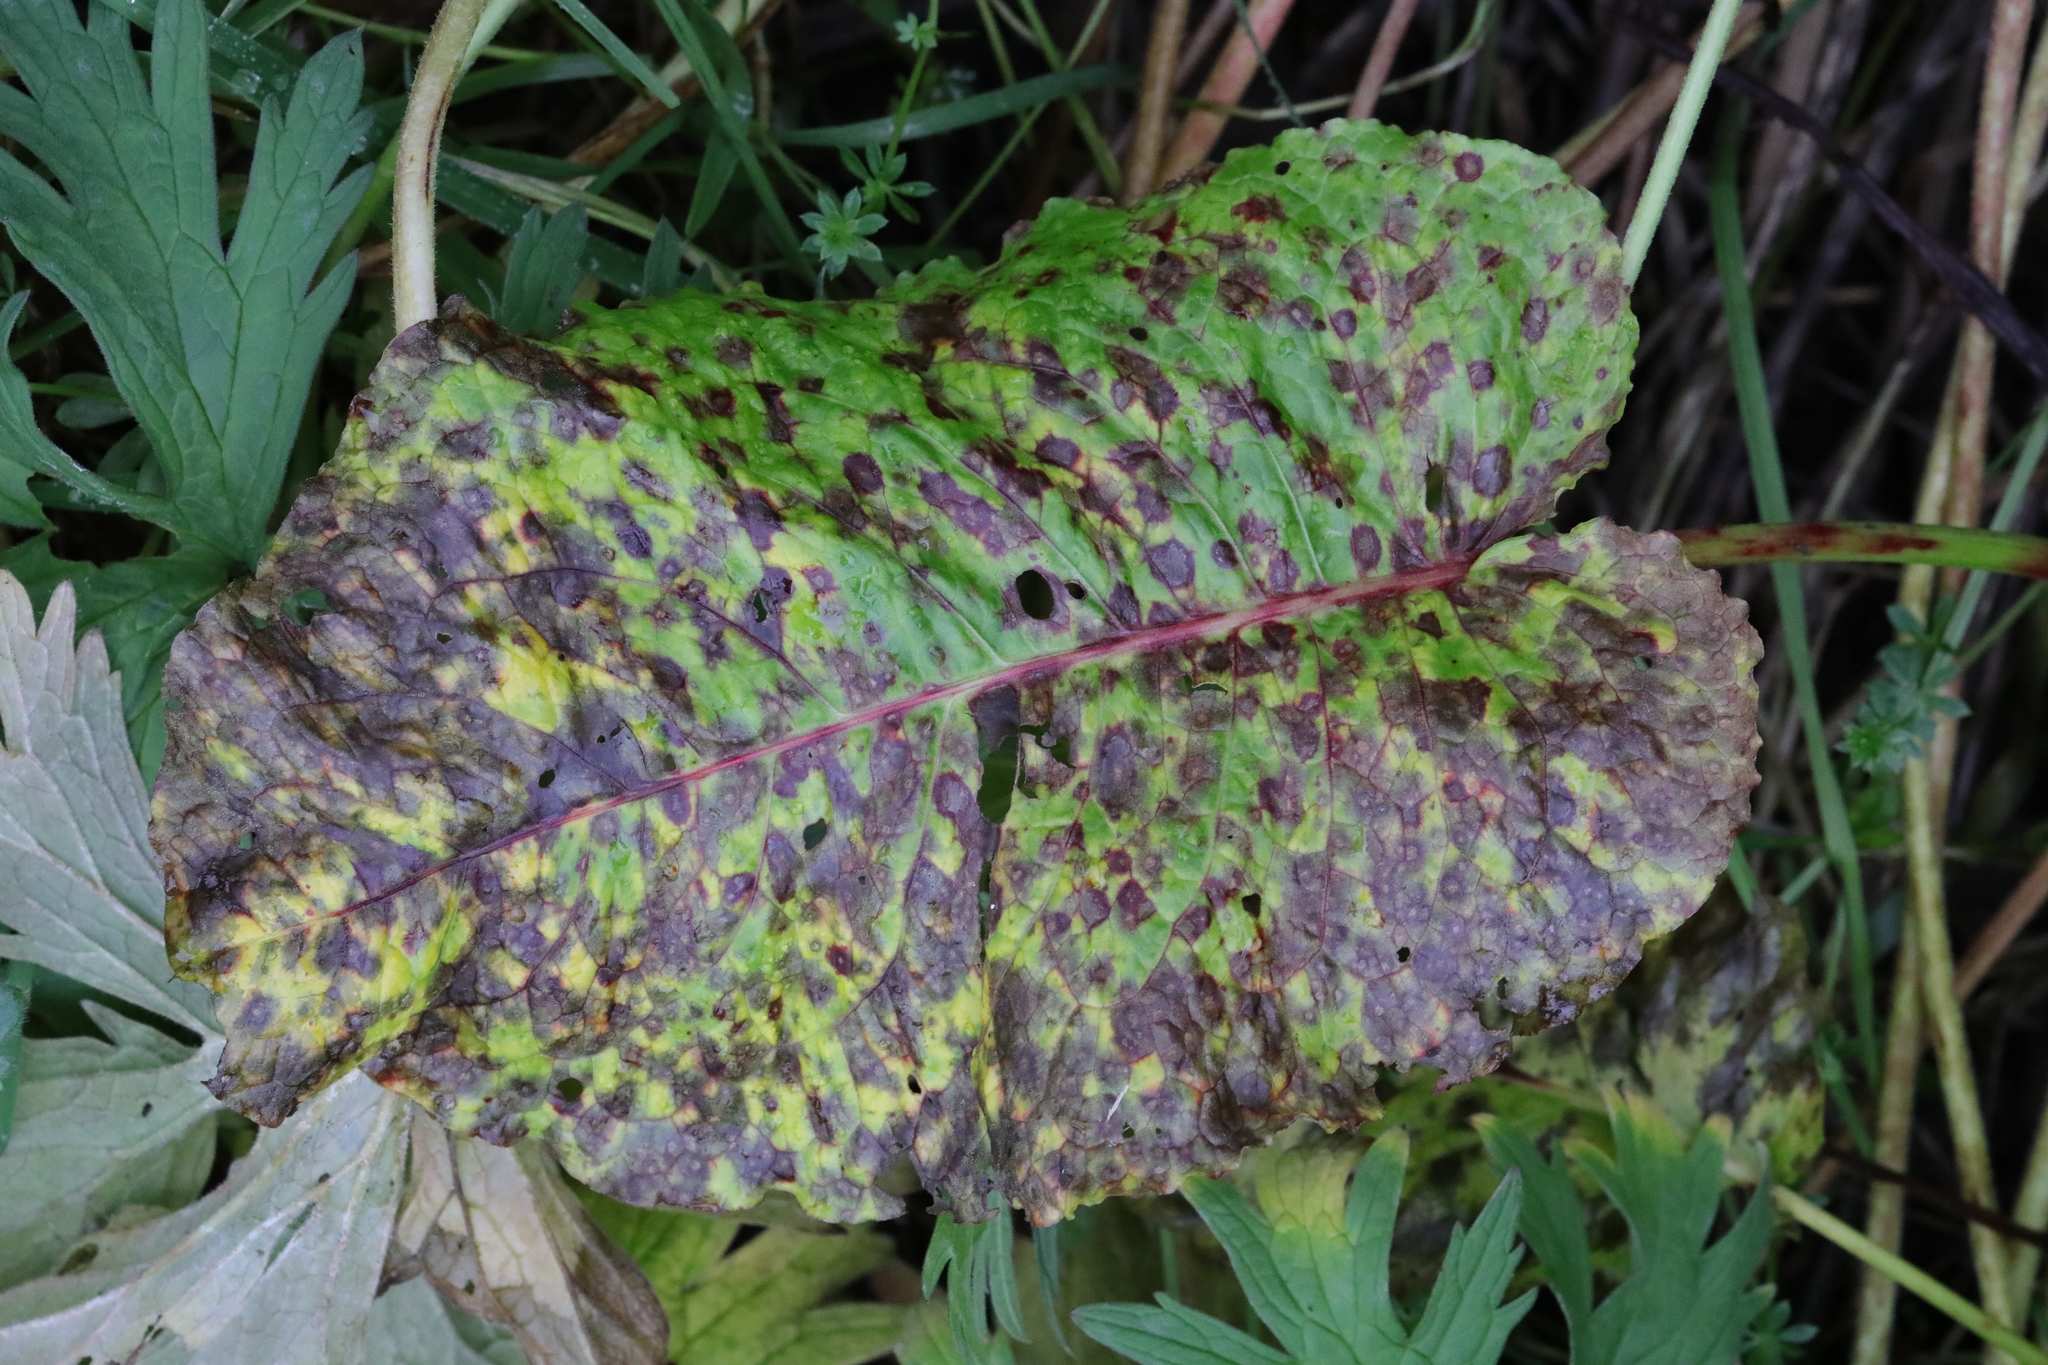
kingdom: Plantae
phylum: Tracheophyta
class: Magnoliopsida
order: Caryophyllales
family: Polygonaceae
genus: Rumex
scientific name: Rumex obtusifolius
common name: Bitter dock
